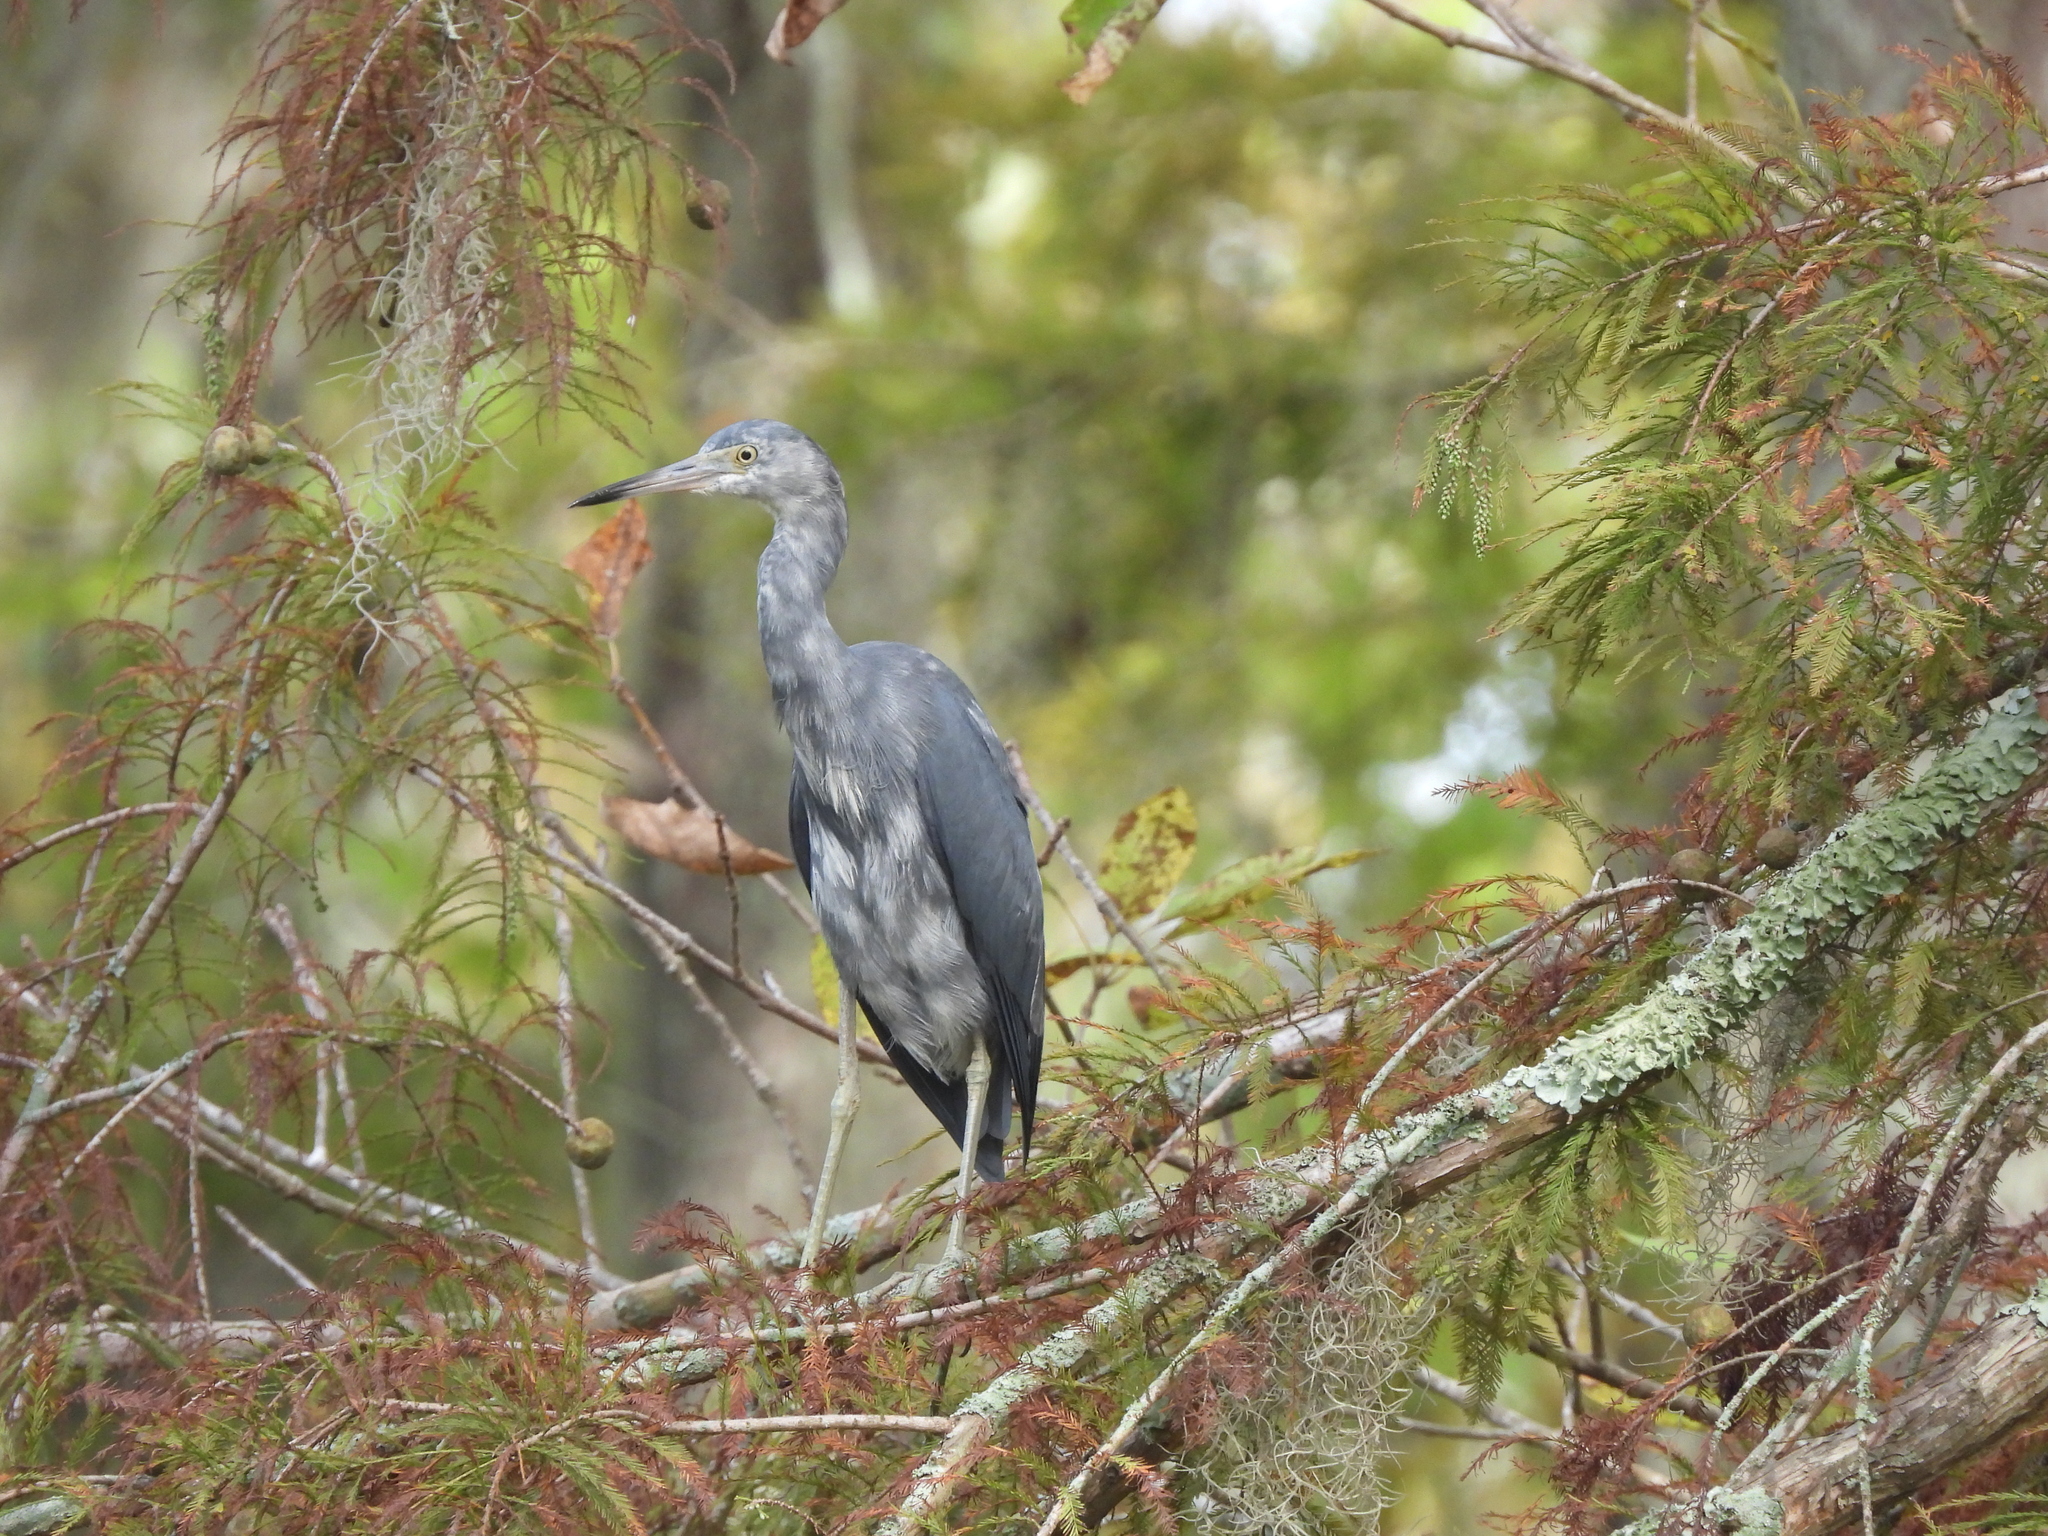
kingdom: Animalia
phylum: Chordata
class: Aves
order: Pelecaniformes
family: Ardeidae
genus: Egretta
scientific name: Egretta caerulea
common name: Little blue heron
